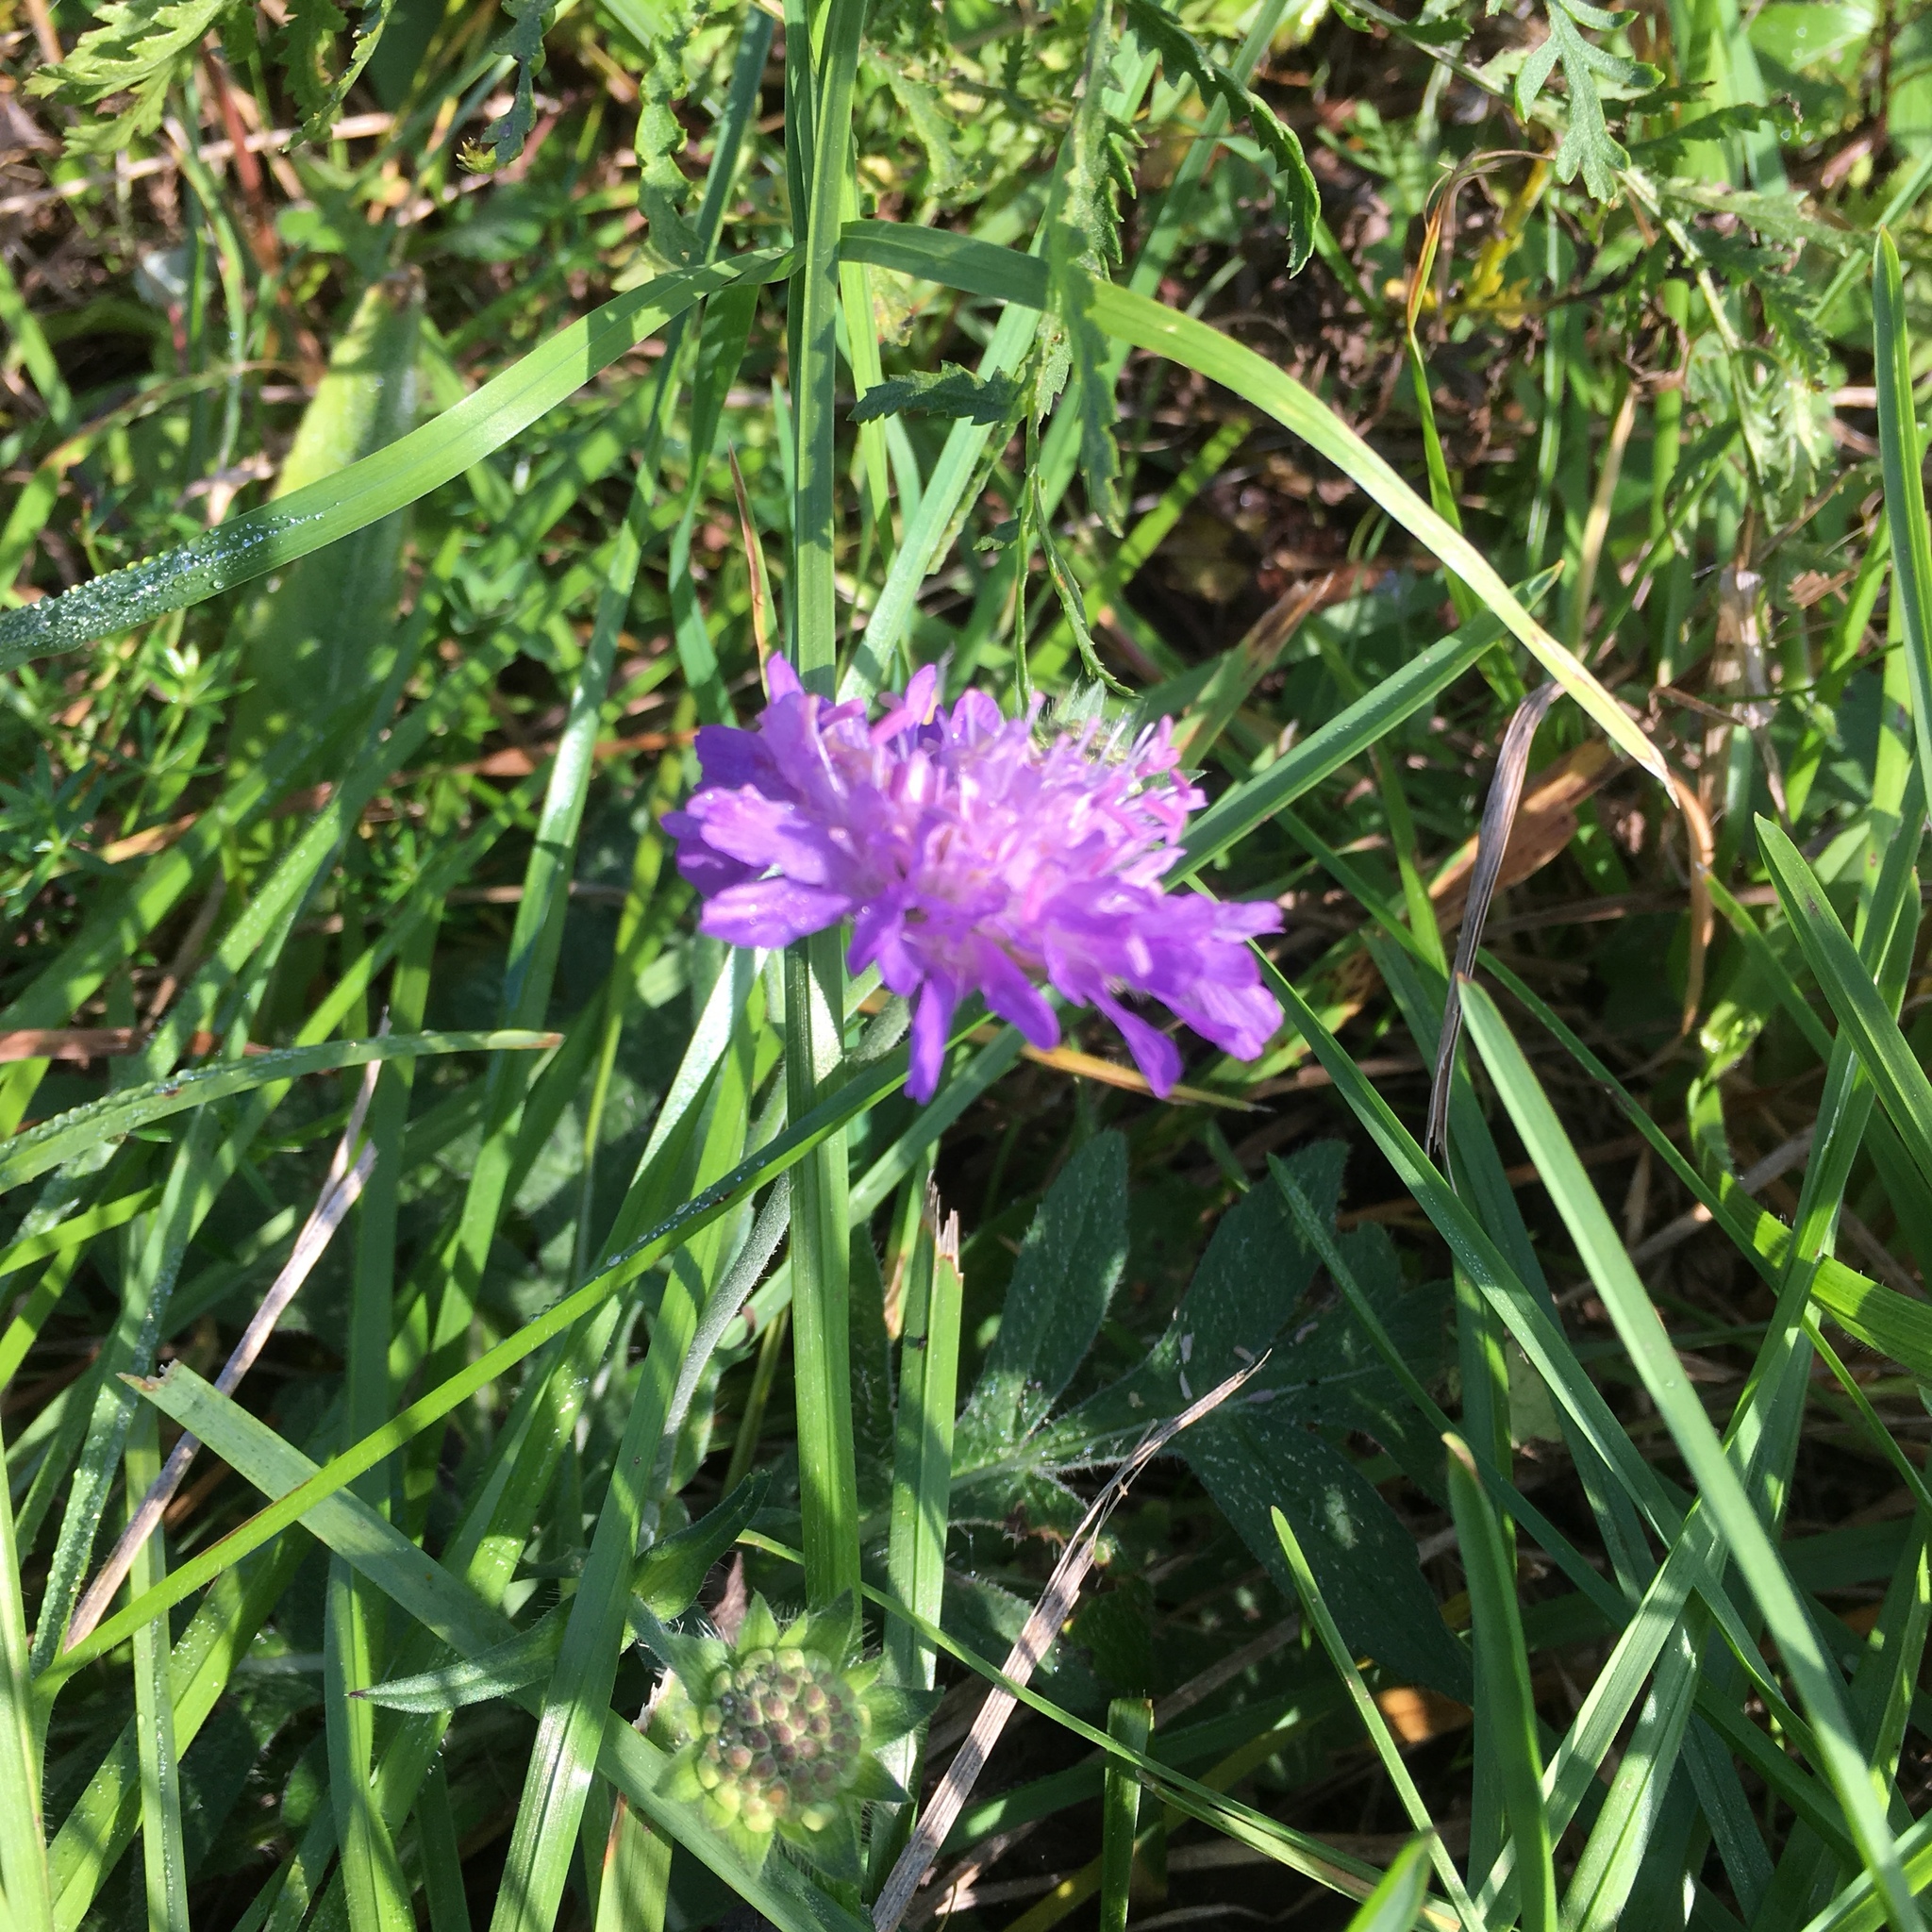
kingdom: Plantae
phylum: Tracheophyta
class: Magnoliopsida
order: Dipsacales
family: Caprifoliaceae
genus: Knautia
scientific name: Knautia arvensis
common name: Field scabiosa
